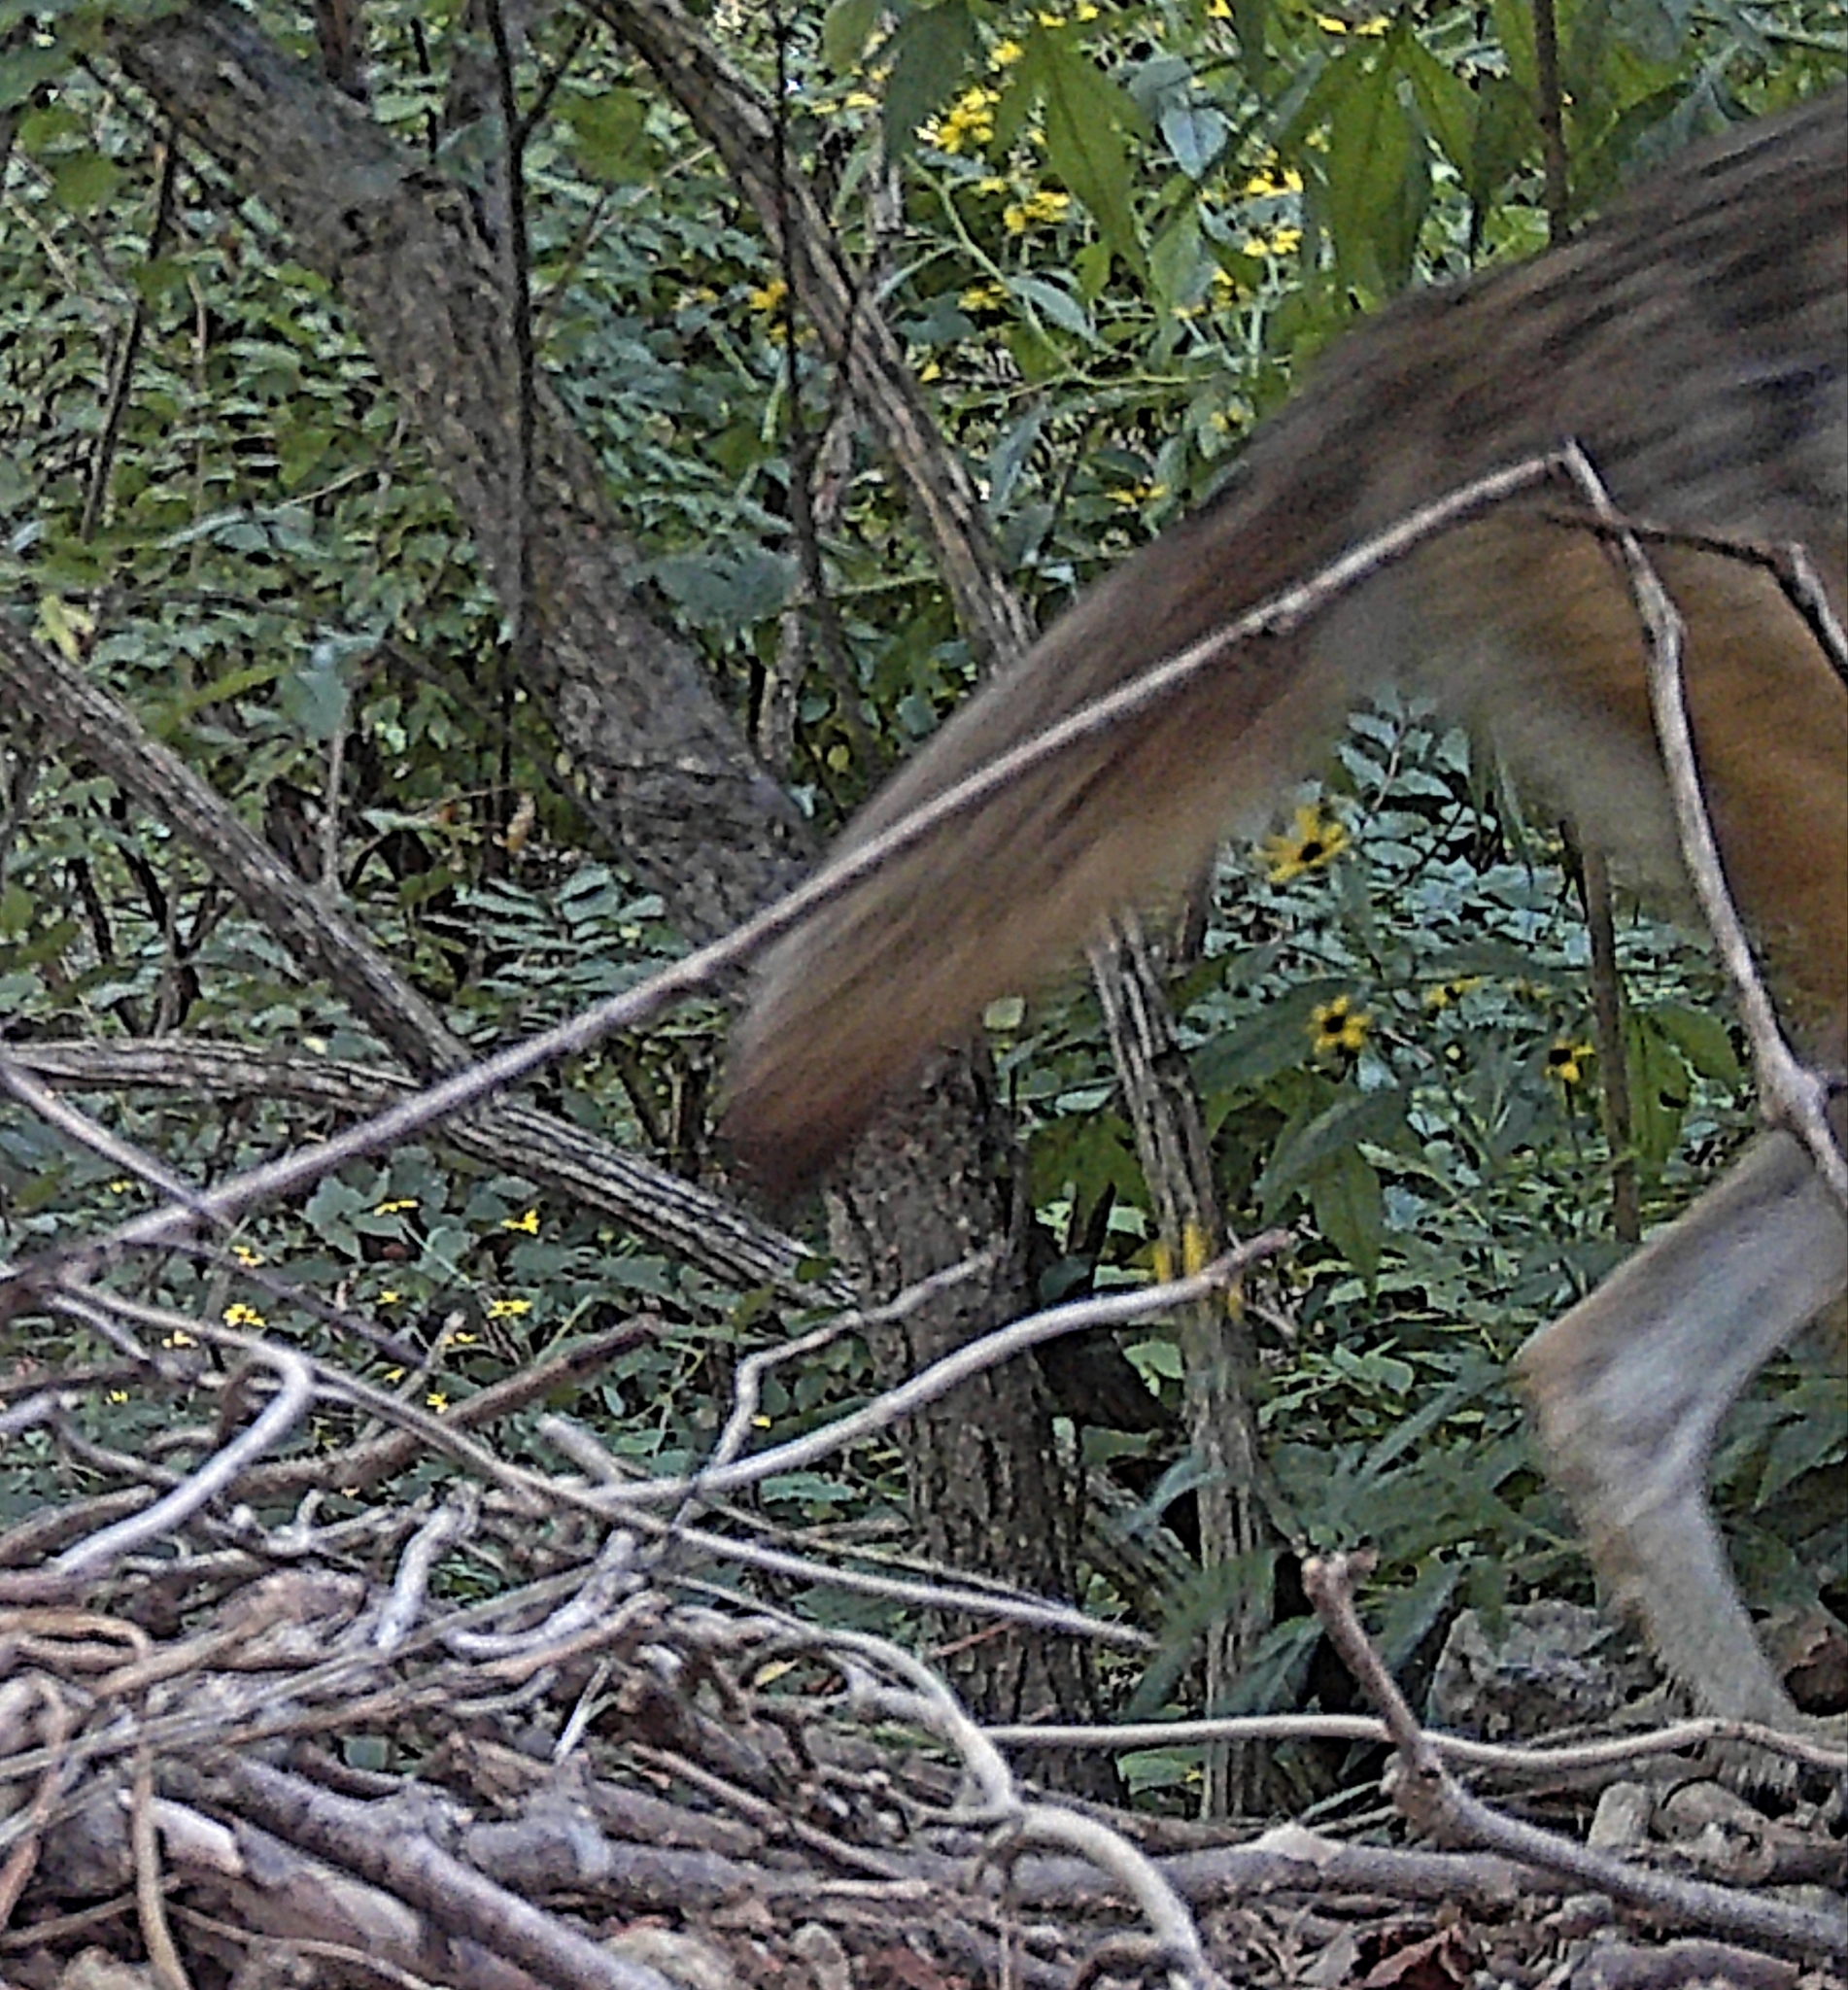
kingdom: Animalia
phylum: Chordata
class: Mammalia
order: Carnivora
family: Canidae
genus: Canis
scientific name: Canis latrans
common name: Coyote
